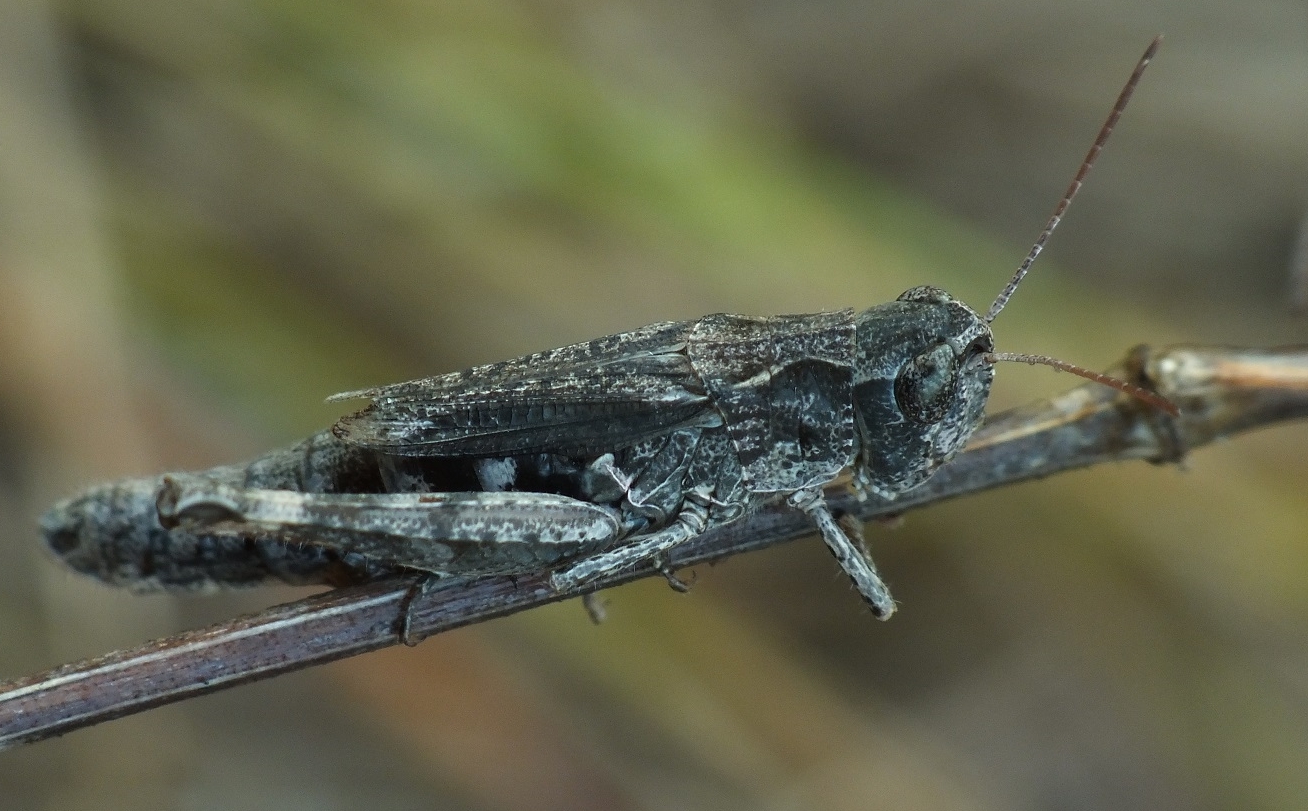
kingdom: Animalia
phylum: Arthropoda
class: Insecta
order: Orthoptera
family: Acrididae
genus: Chorthippus
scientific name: Chorthippus macrocerus
